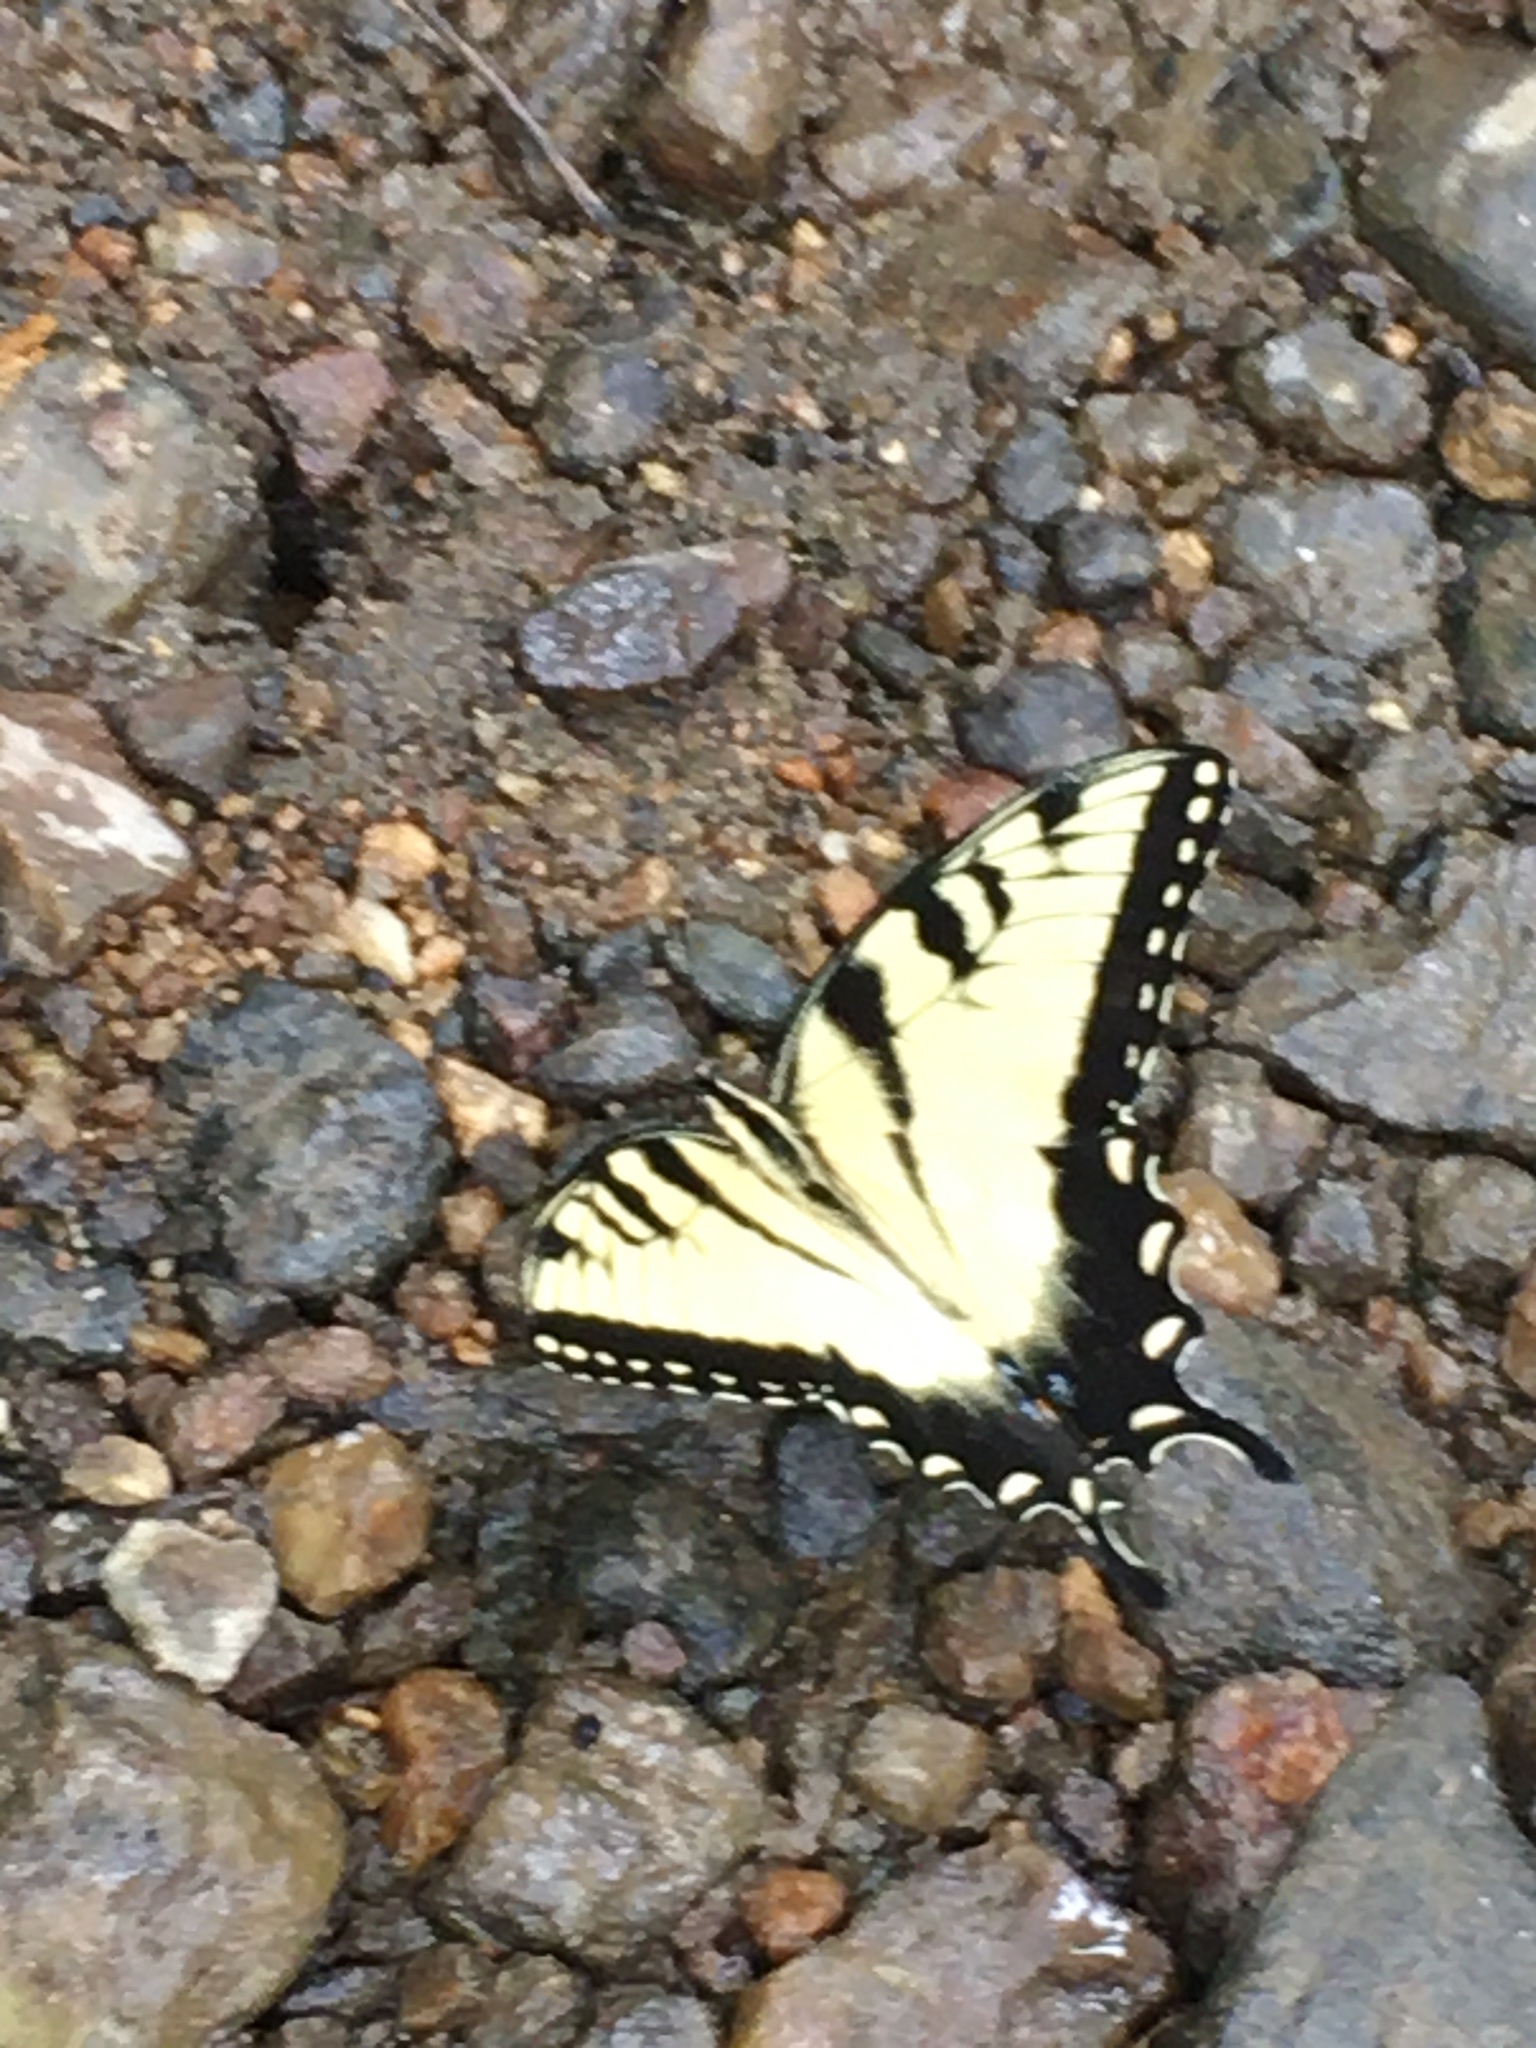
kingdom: Animalia
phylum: Arthropoda
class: Insecta
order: Lepidoptera
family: Papilionidae
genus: Papilio
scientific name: Papilio glaucus
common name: Tiger swallowtail
